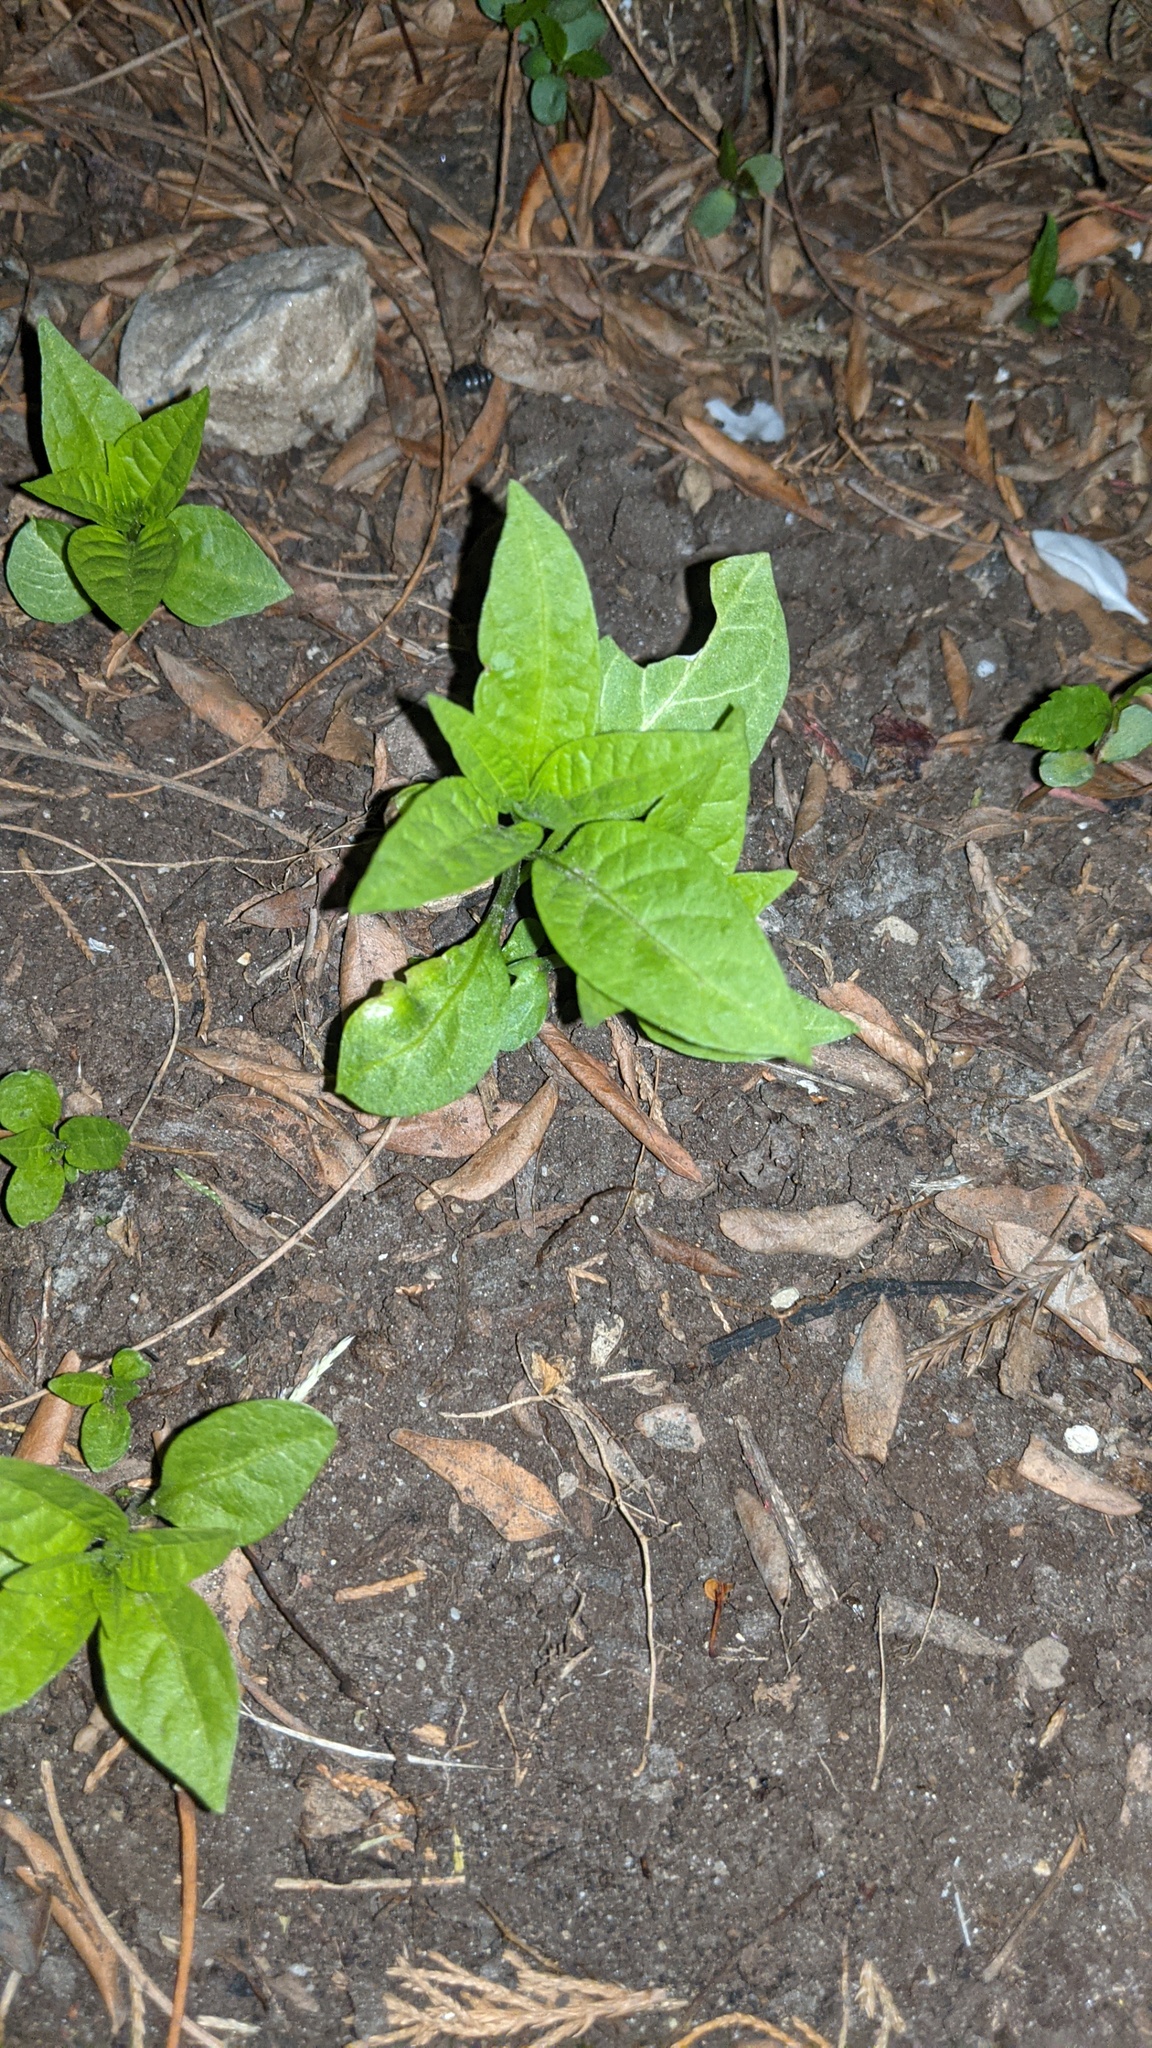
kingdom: Plantae
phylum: Tracheophyta
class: Magnoliopsida
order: Solanales
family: Solanaceae
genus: Solanum
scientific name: Solanum dulcamara
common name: Climbing nightshade
